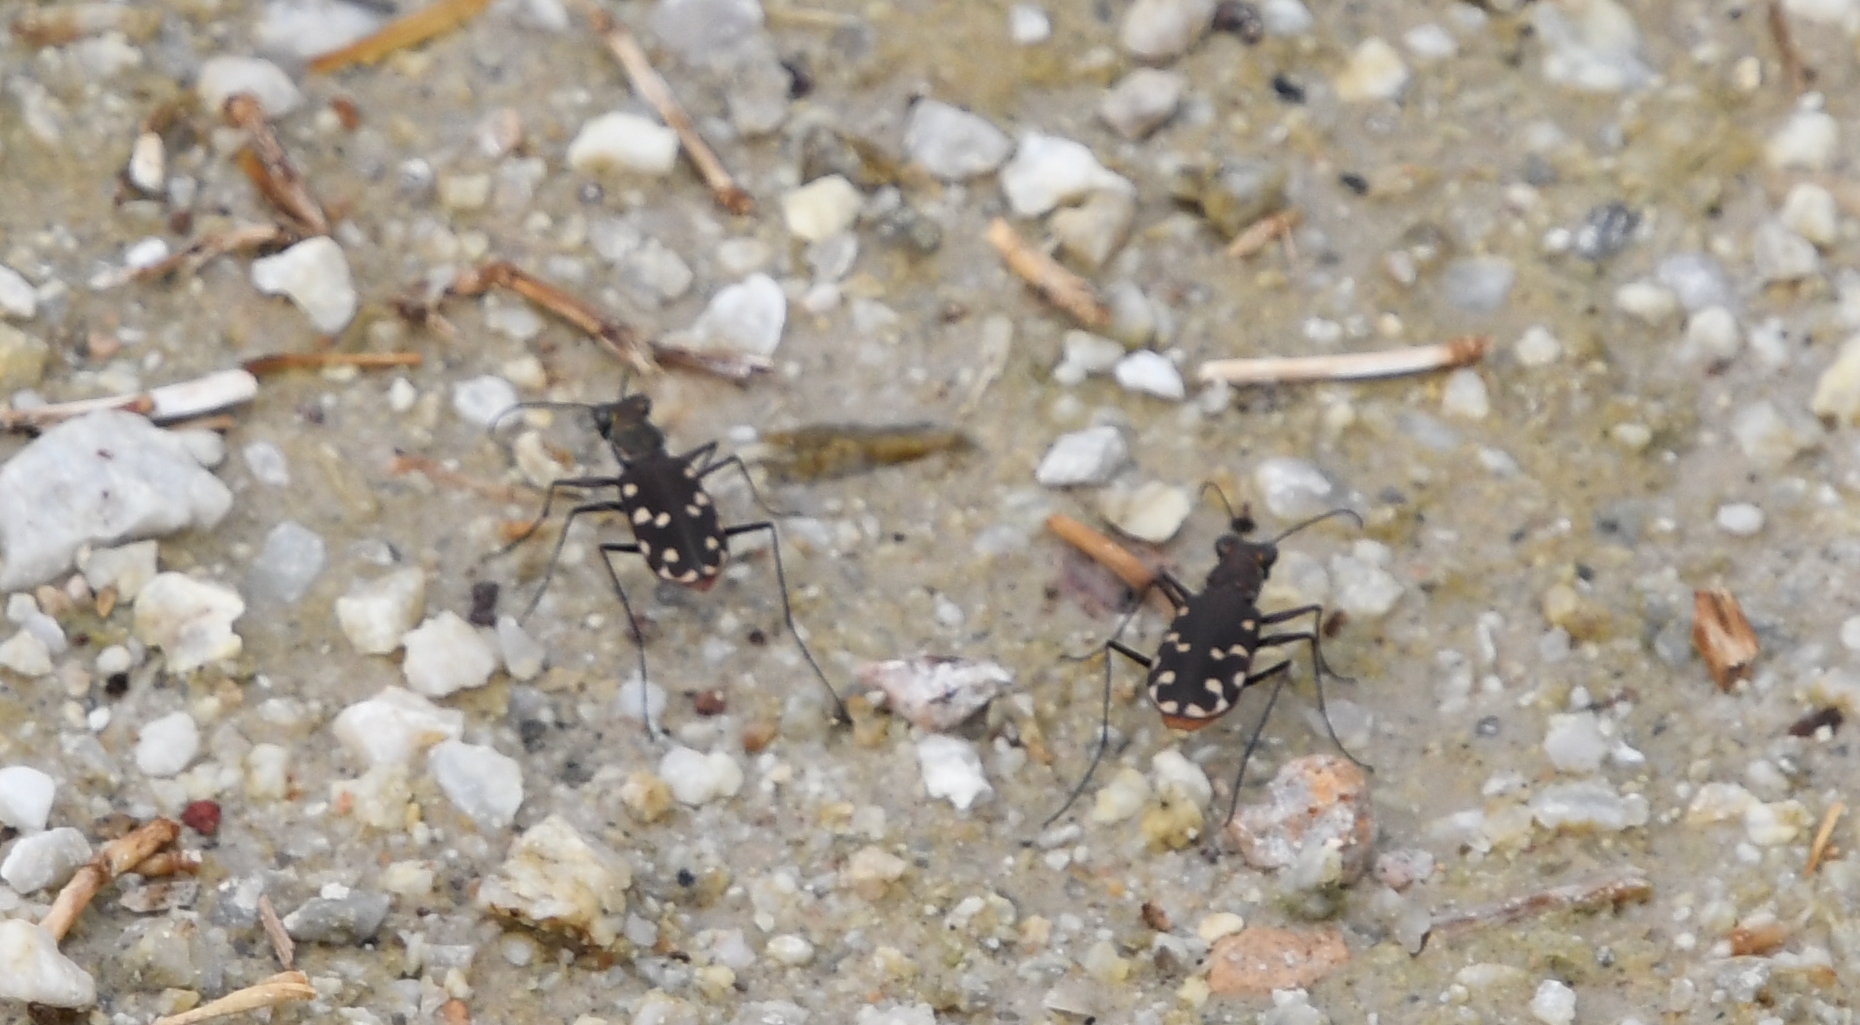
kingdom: Animalia
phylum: Arthropoda
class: Insecta
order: Coleoptera
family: Carabidae
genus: Cicindela
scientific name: Cicindela sedecimpunctata
